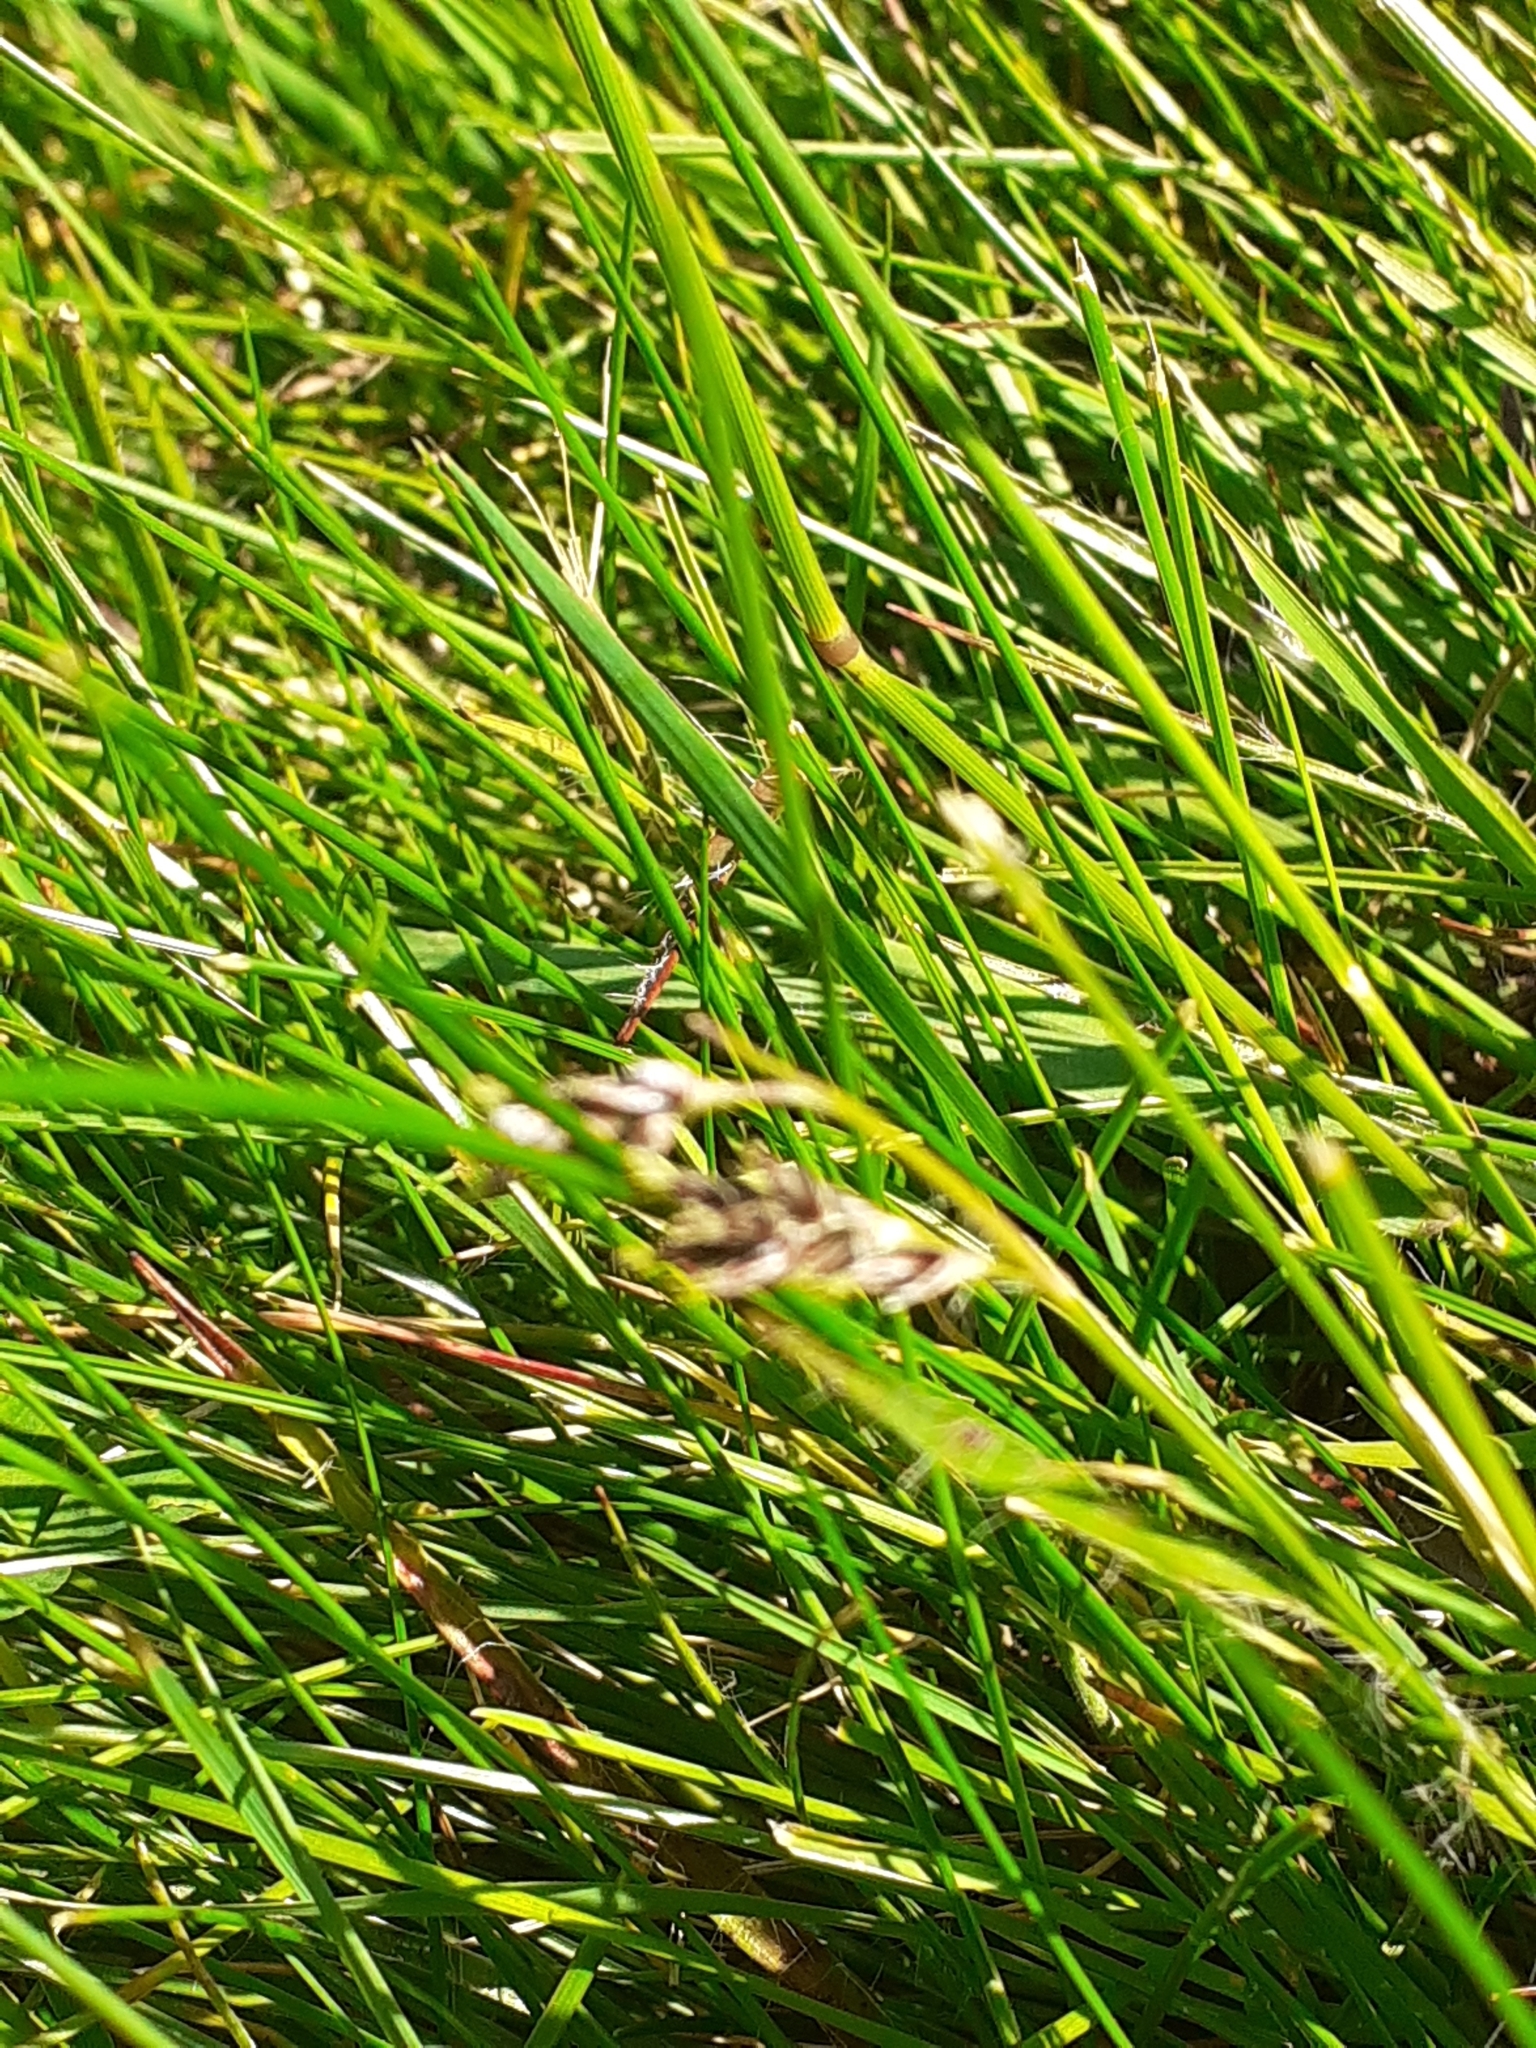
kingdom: Plantae
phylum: Tracheophyta
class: Liliopsida
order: Poales
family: Juncaceae
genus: Luzula
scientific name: Luzula campestris
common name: Field wood-rush
